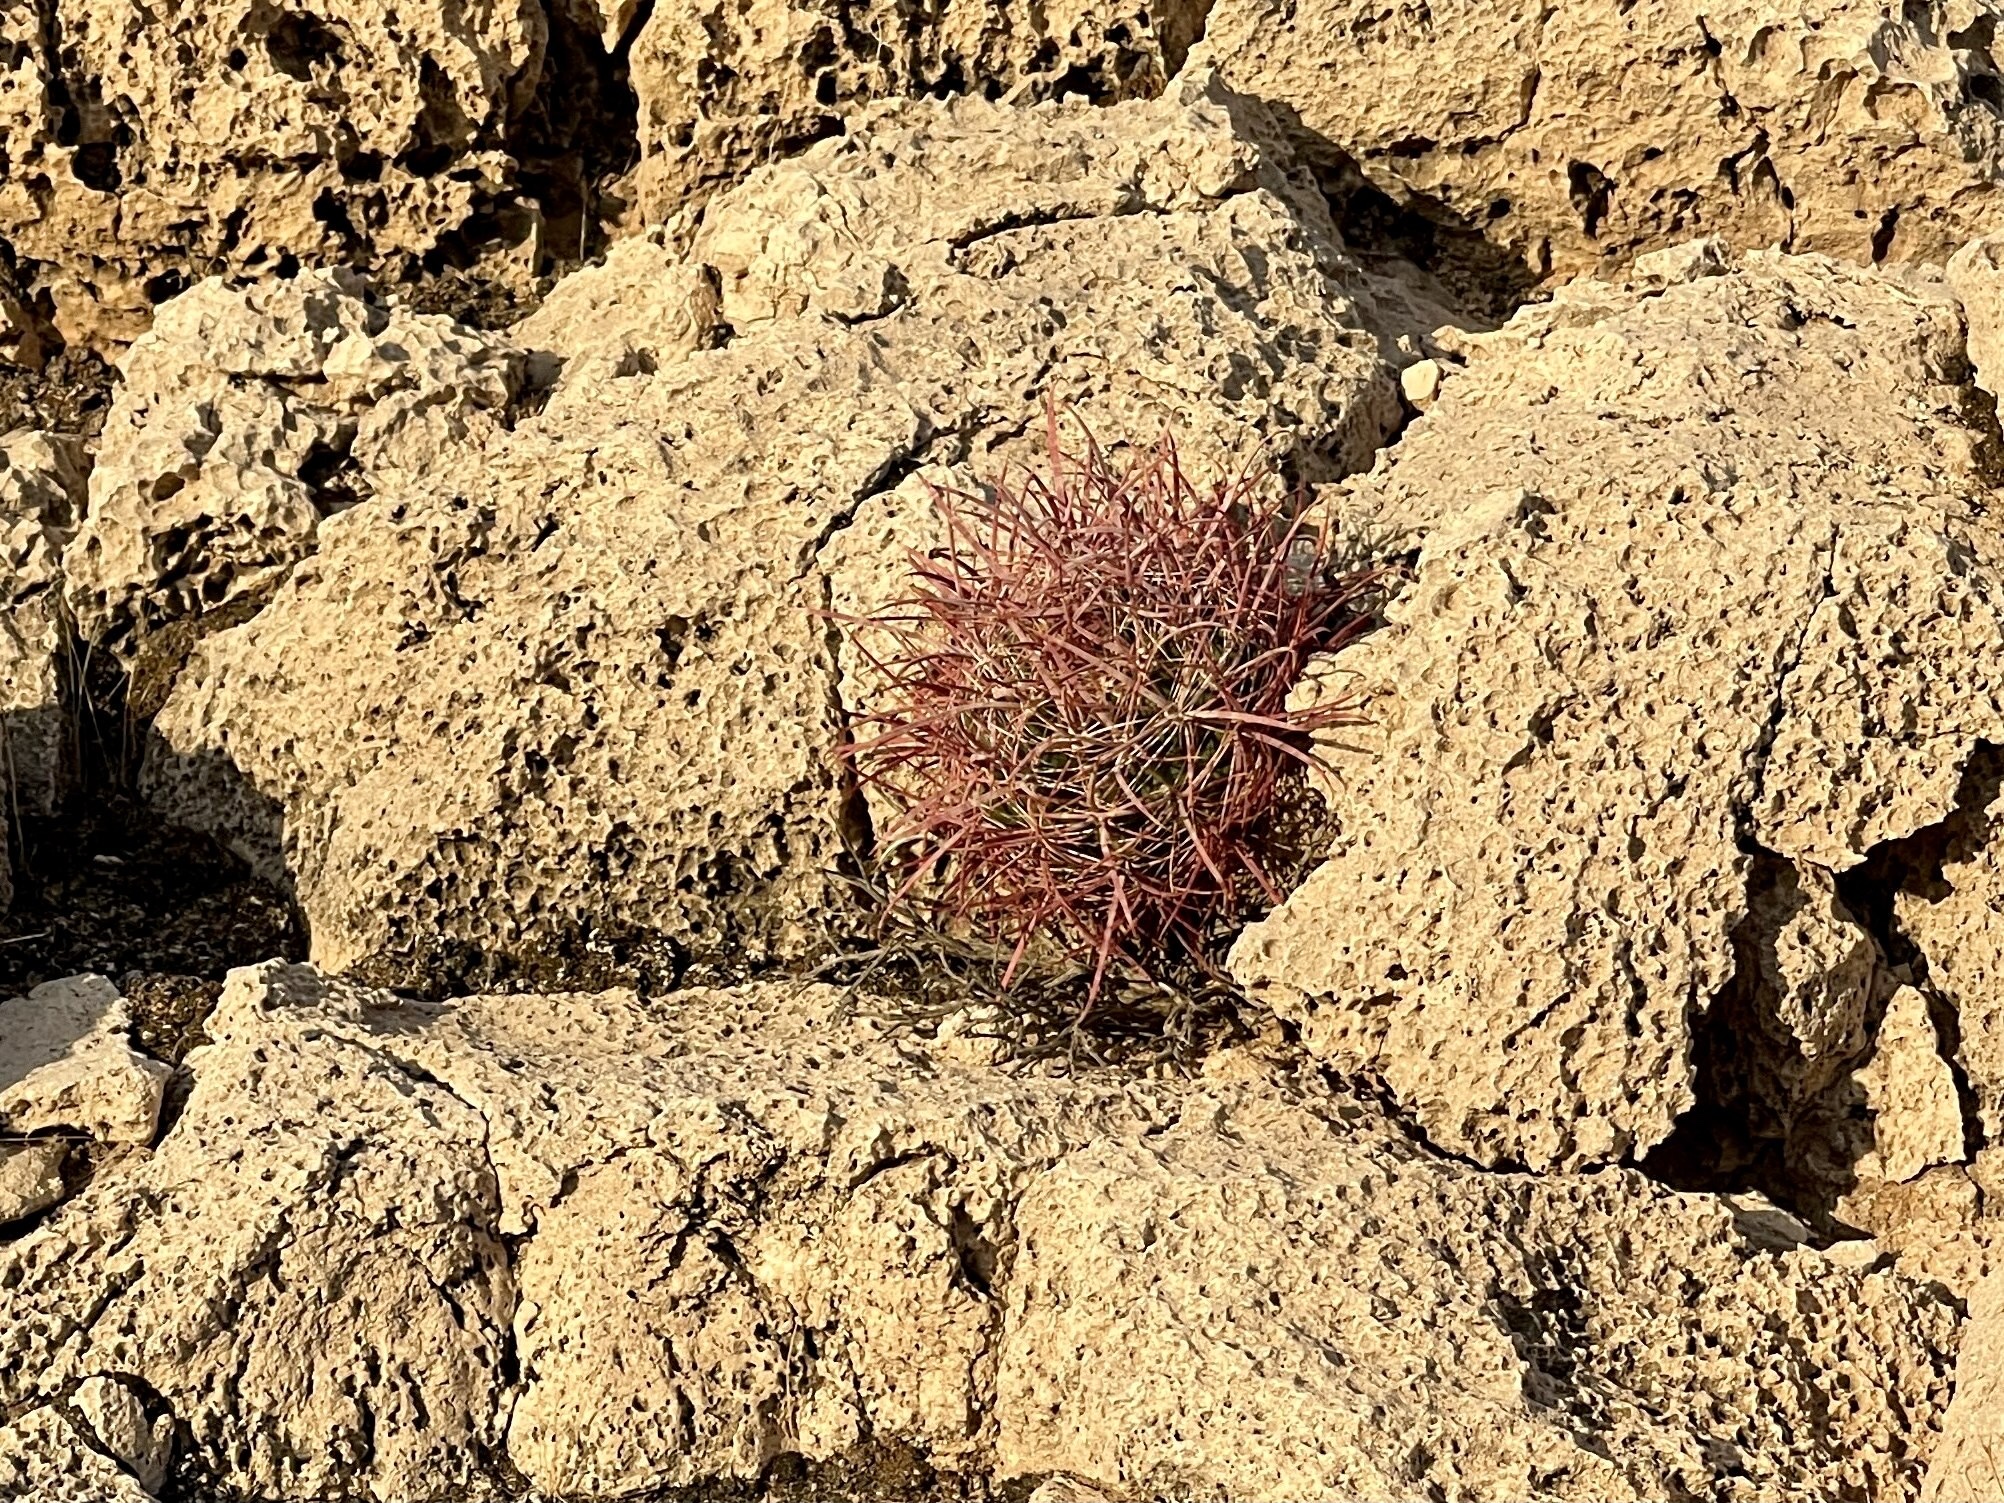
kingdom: Plantae
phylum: Tracheophyta
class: Magnoliopsida
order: Caryophyllales
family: Cactaceae
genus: Ferocactus
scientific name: Ferocactus cylindraceus
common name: California barrel cactus
